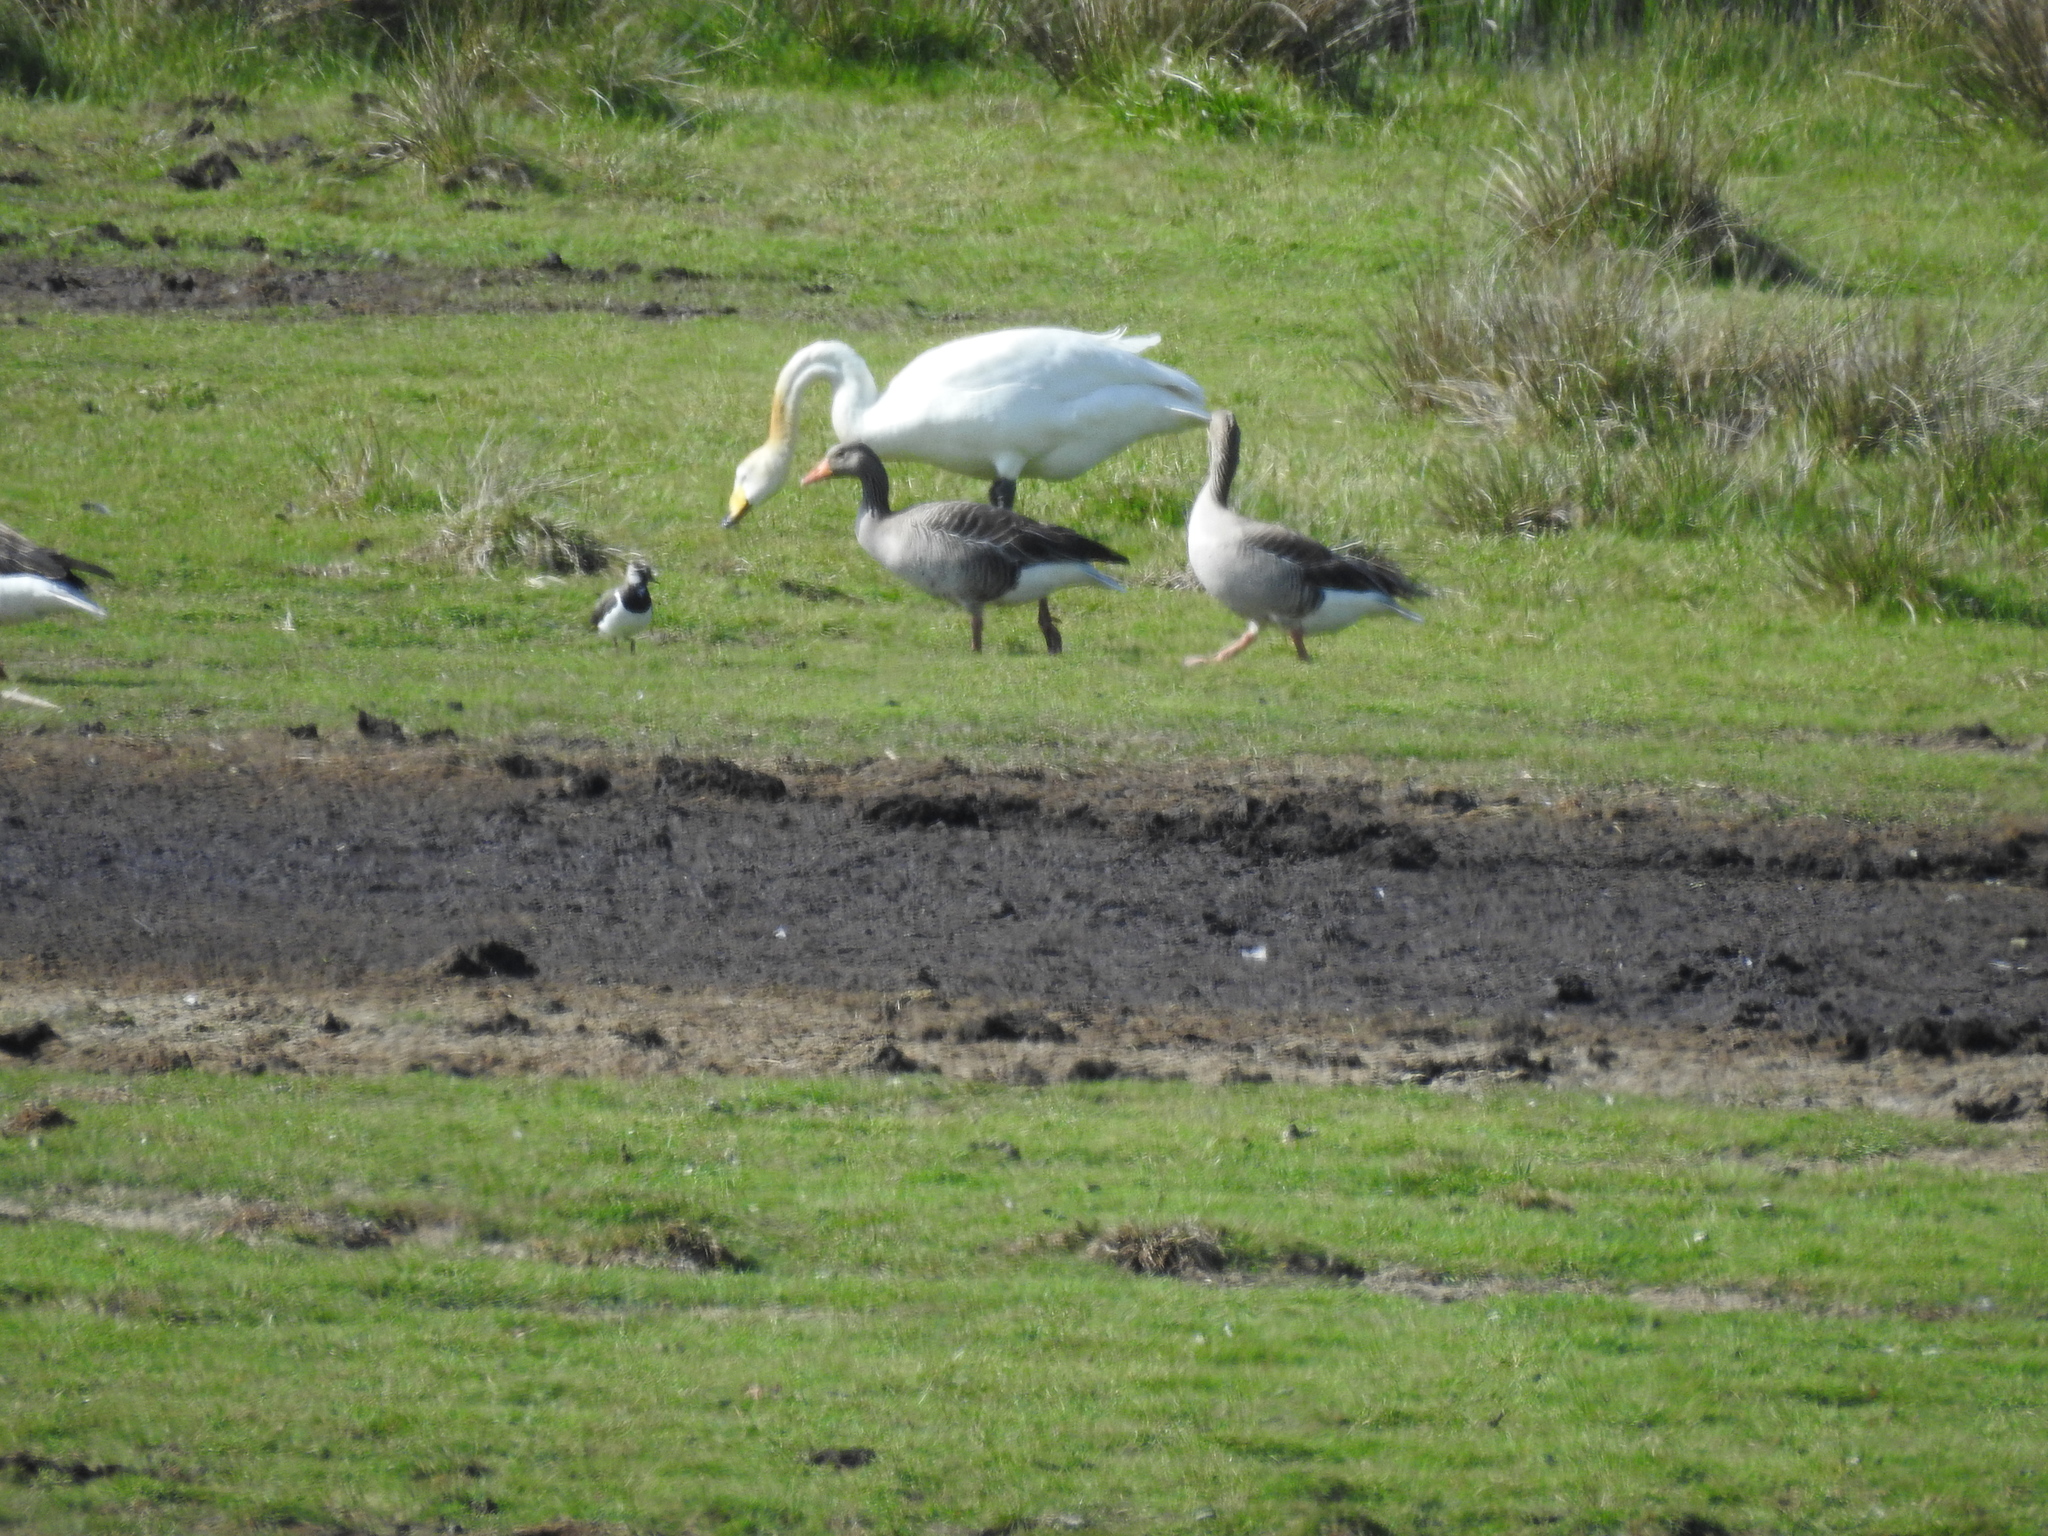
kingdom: Animalia
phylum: Chordata
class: Aves
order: Charadriiformes
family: Charadriidae
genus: Vanellus
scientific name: Vanellus vanellus
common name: Northern lapwing
